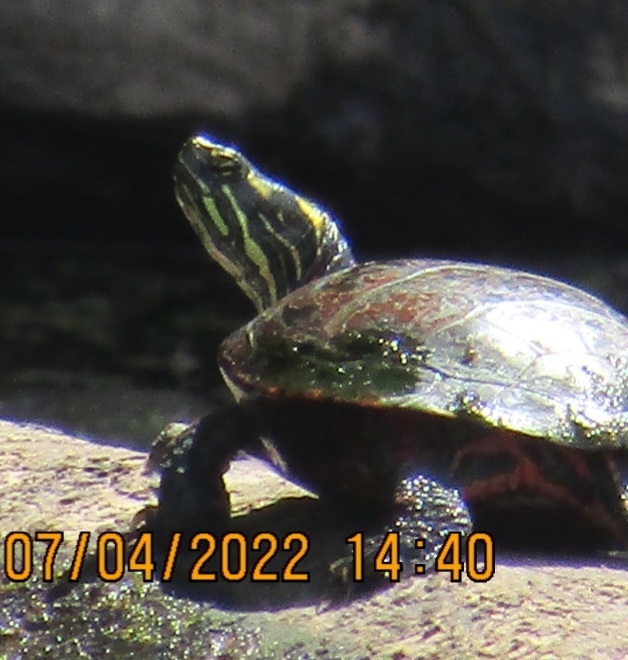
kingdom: Animalia
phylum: Chordata
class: Testudines
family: Emydidae
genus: Chrysemys
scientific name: Chrysemys picta
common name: Painted turtle
